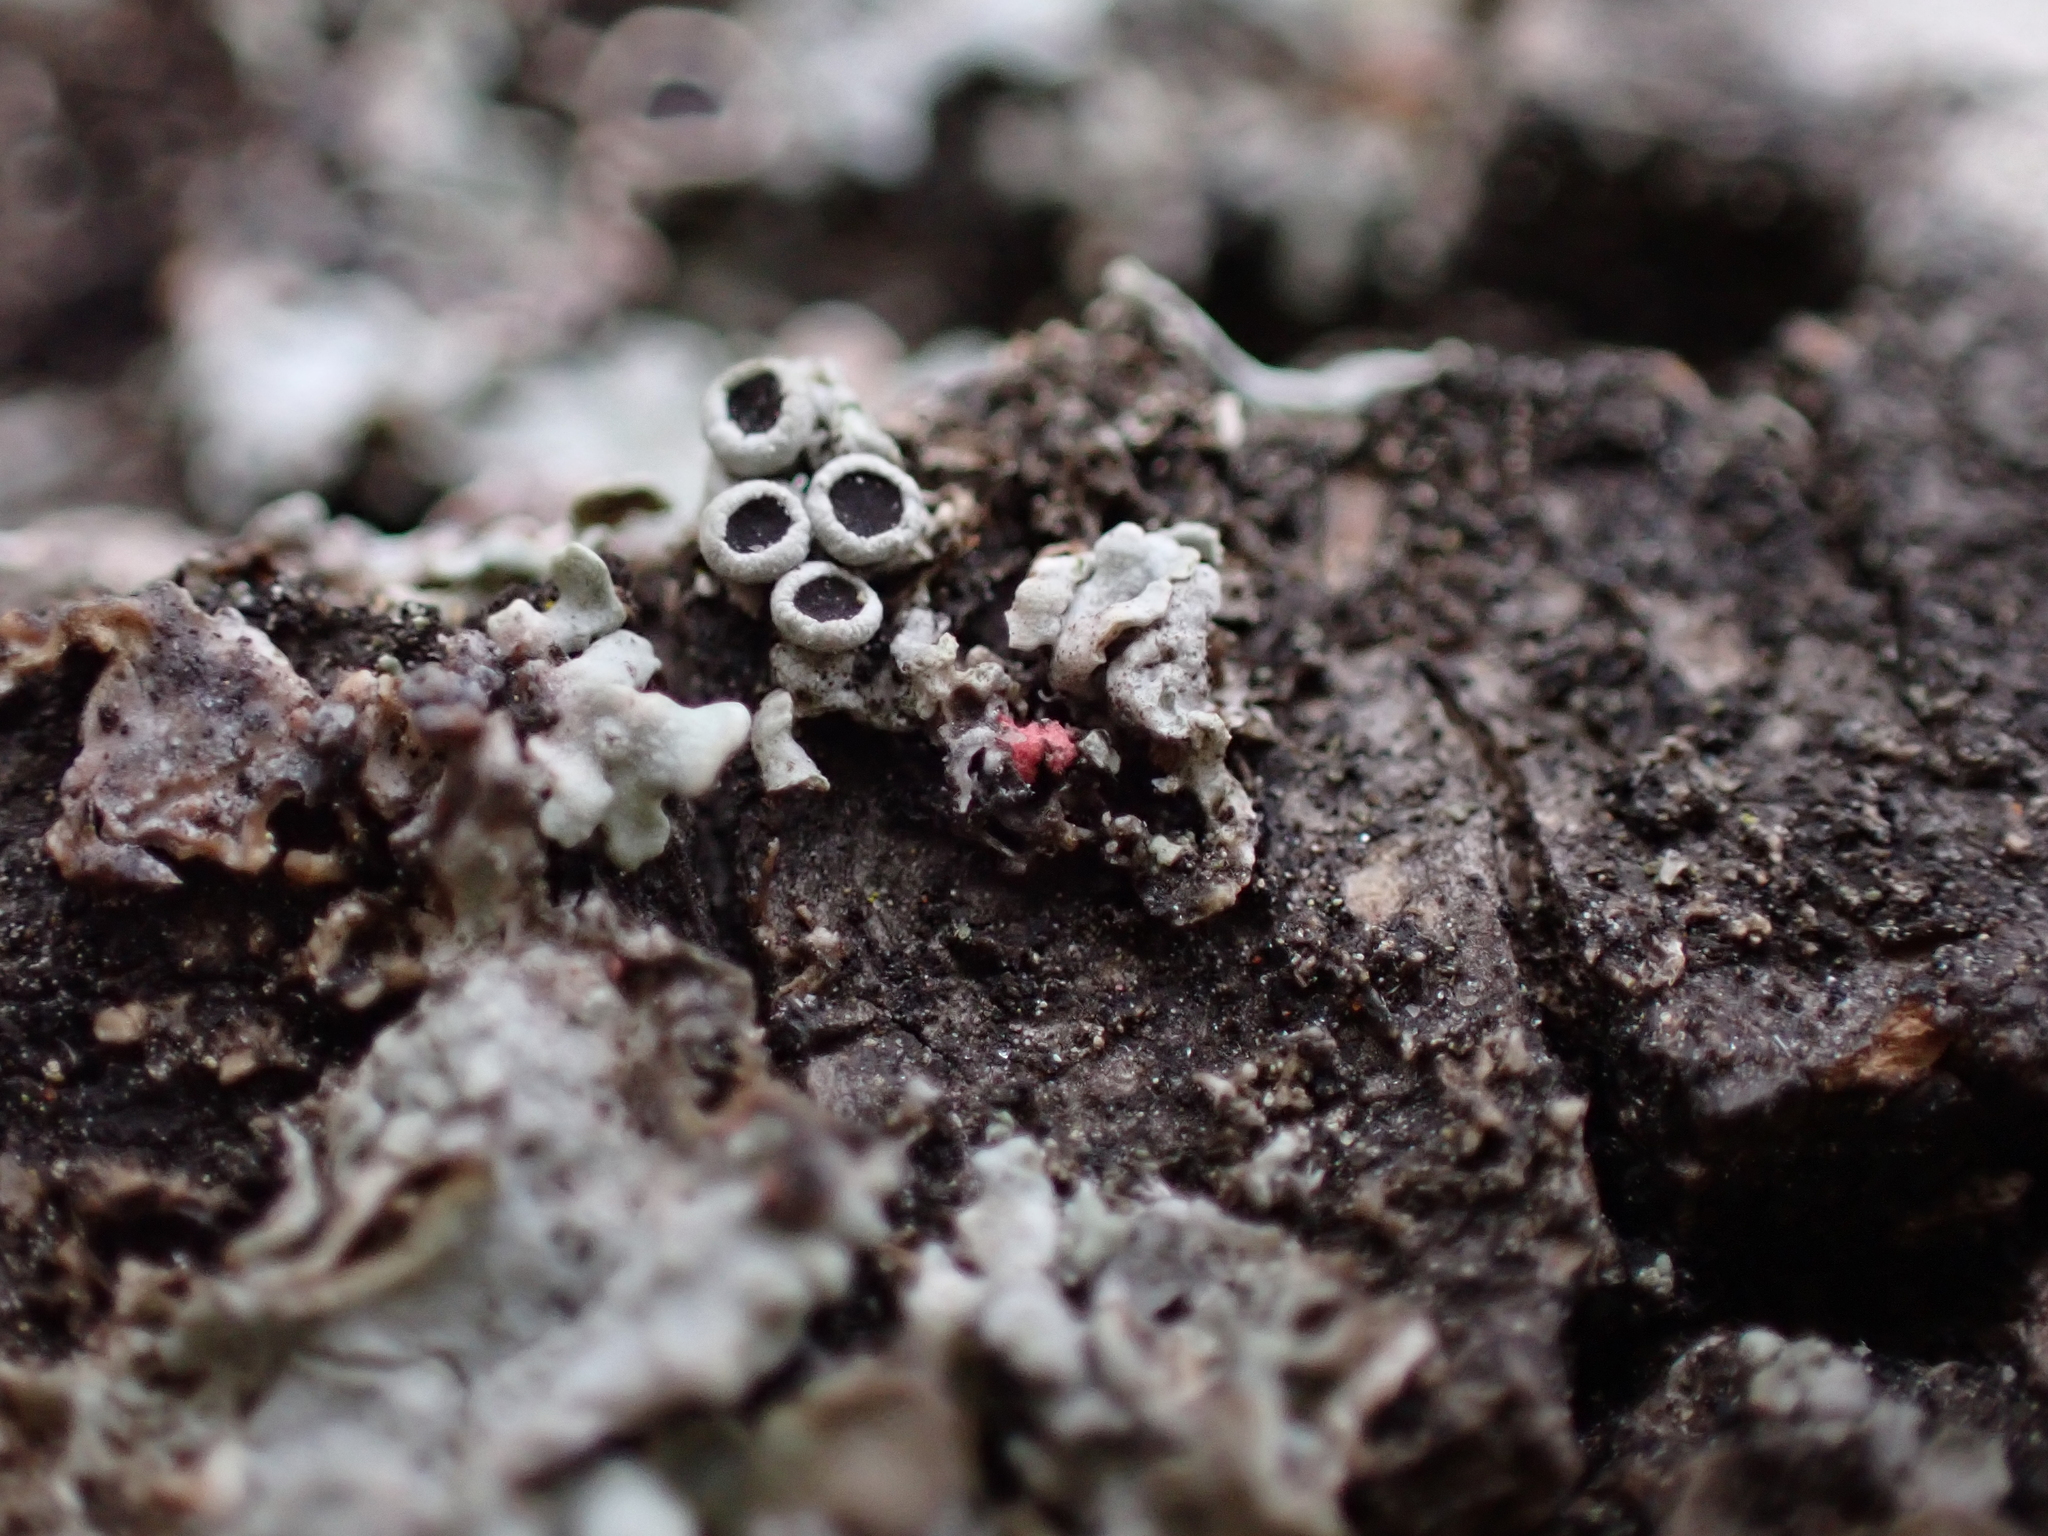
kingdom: Fungi
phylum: Ascomycota
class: Sordariomycetes
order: Hypocreales
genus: Illosporiopsis
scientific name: Illosporiopsis christiansenii
